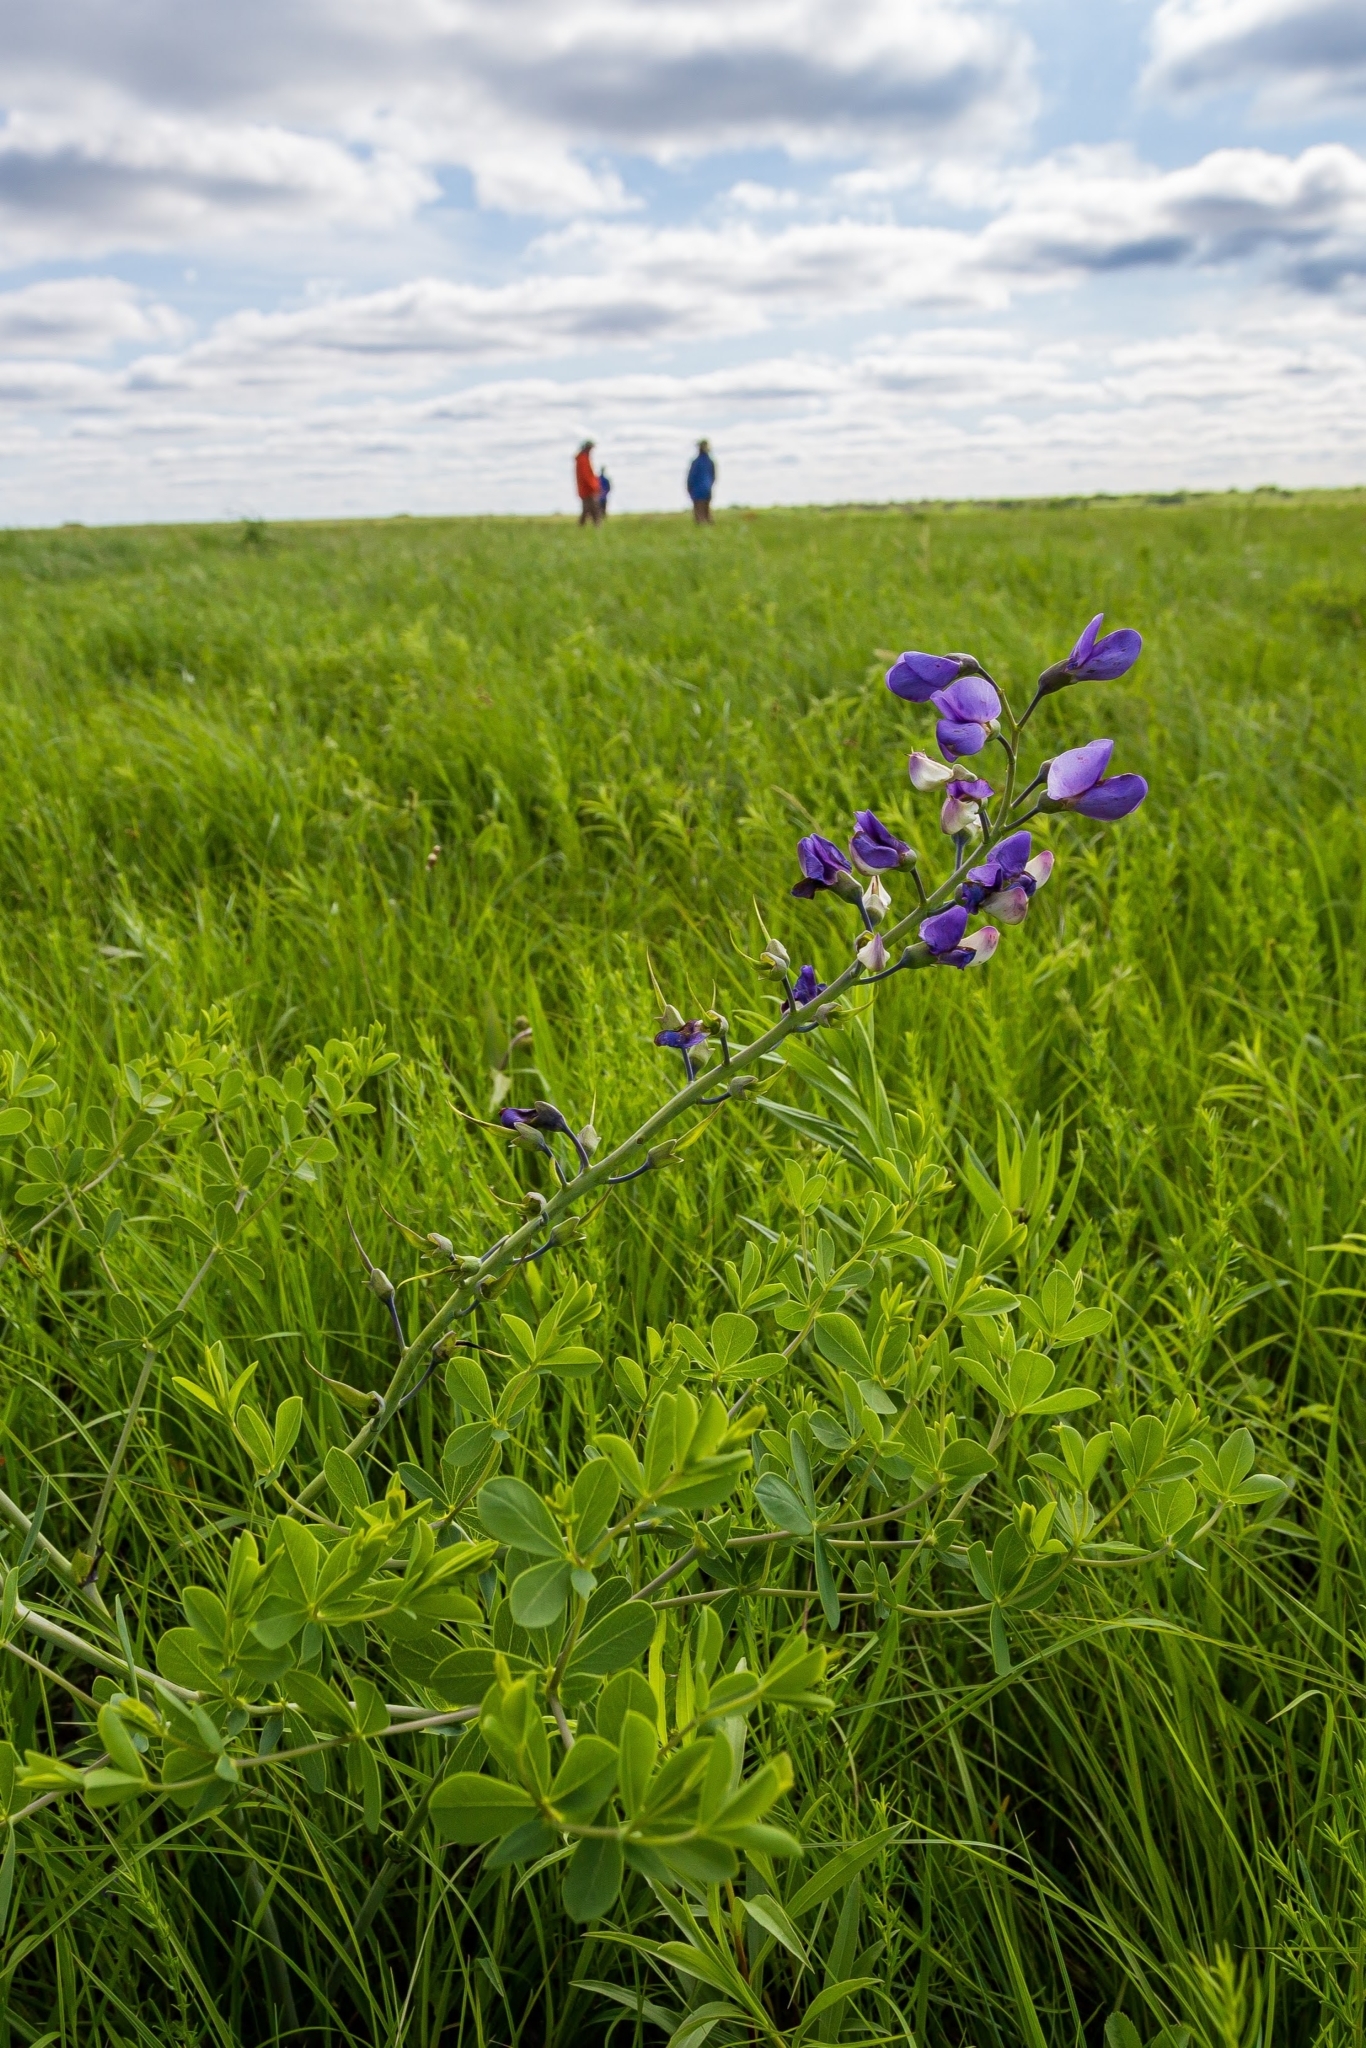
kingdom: Plantae
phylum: Tracheophyta
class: Magnoliopsida
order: Fabales
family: Fabaceae
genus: Baptisia
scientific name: Baptisia australis
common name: Blue false indigo
